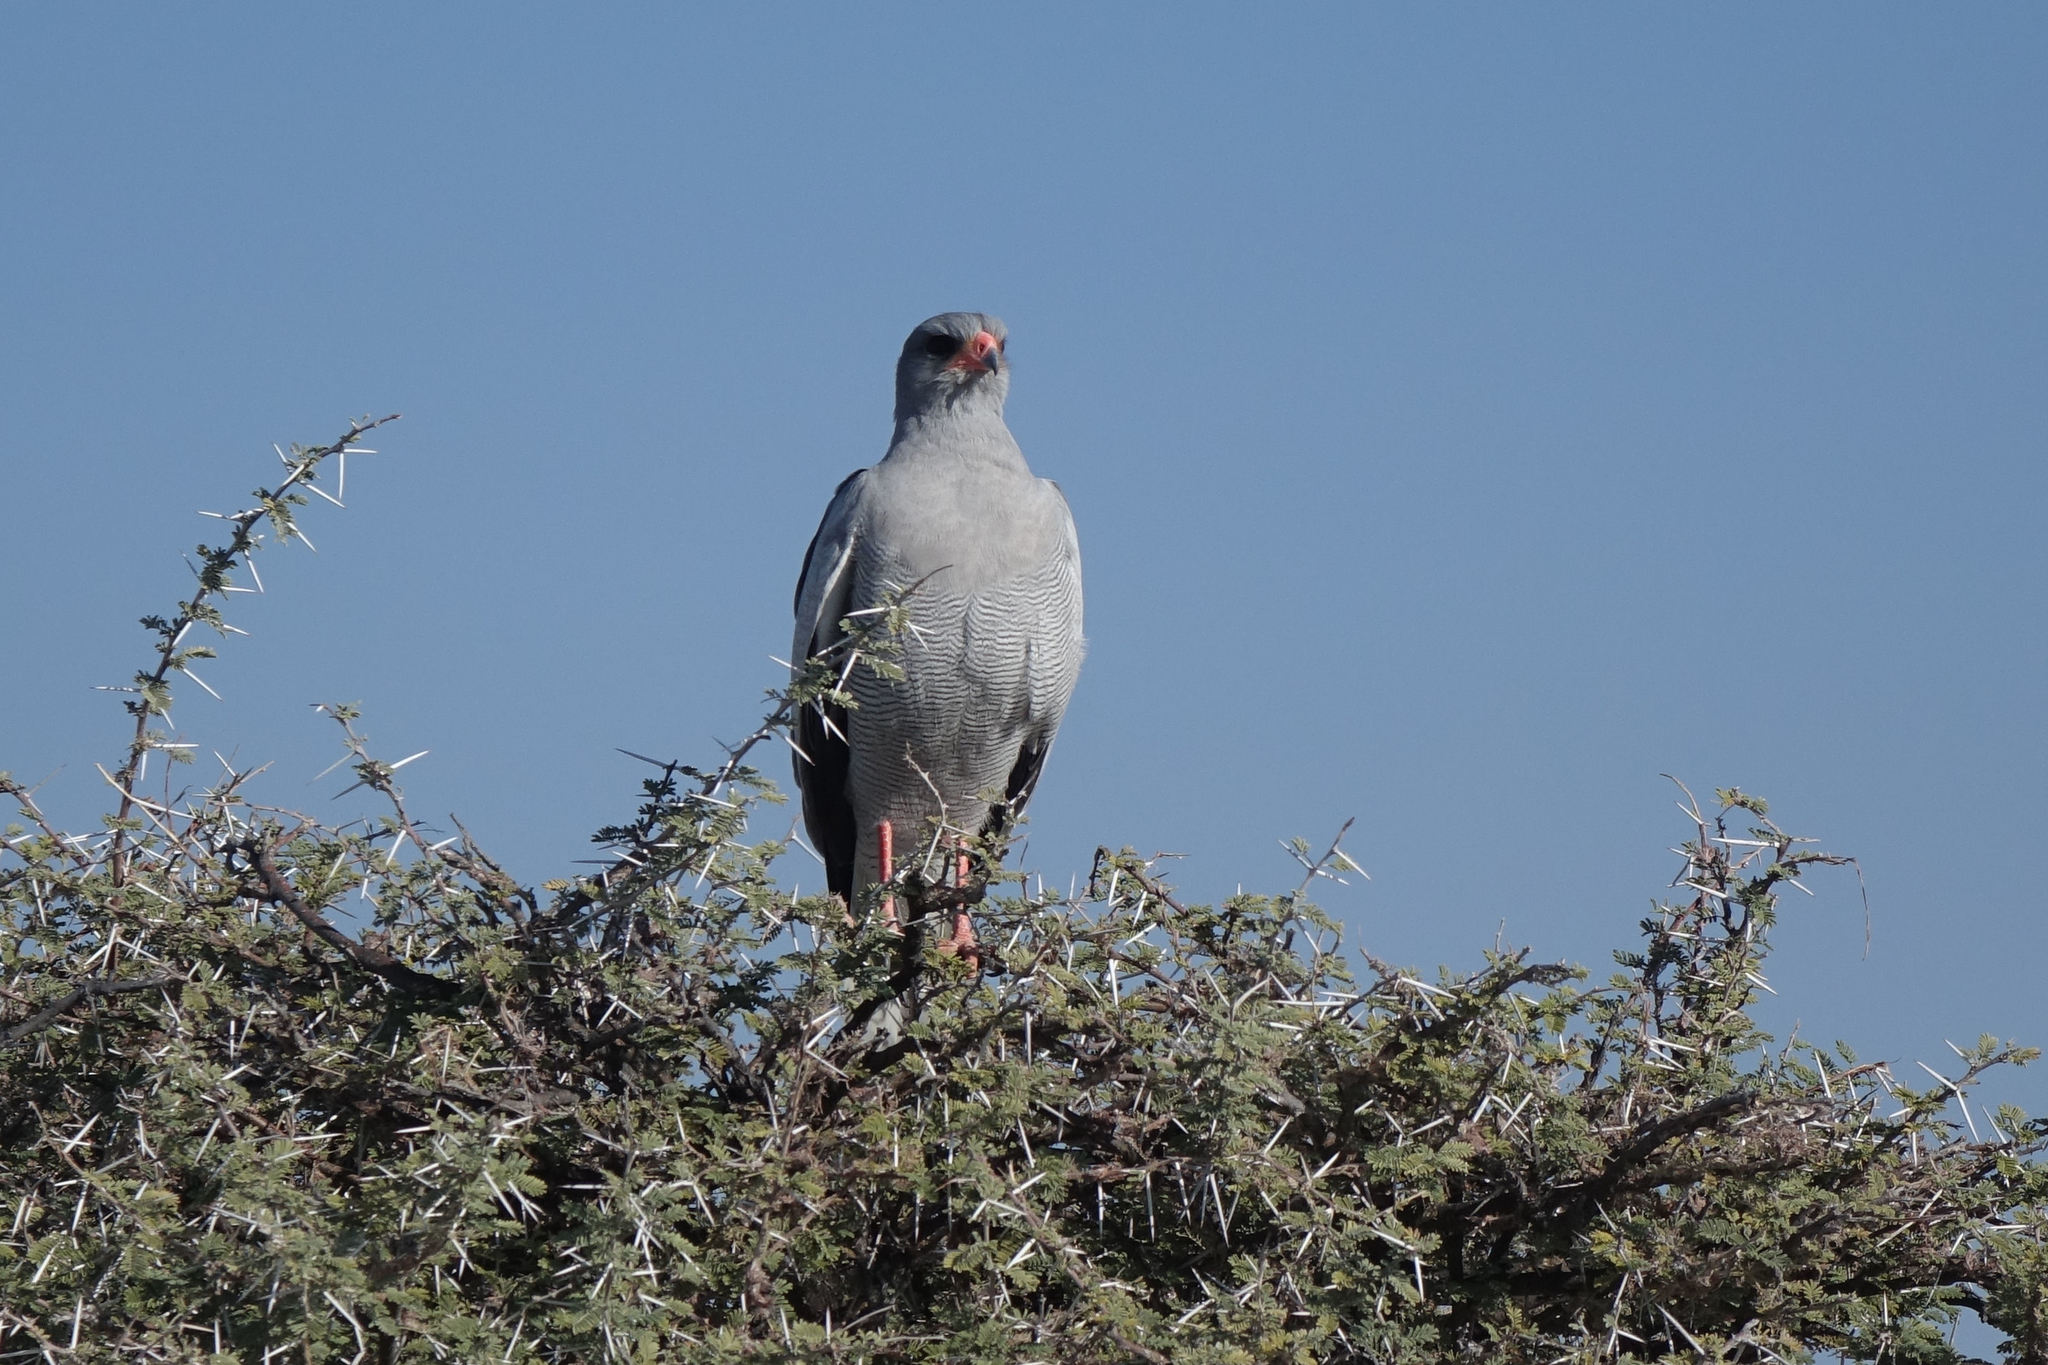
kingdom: Animalia
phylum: Chordata
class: Aves
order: Accipitriformes
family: Accipitridae
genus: Melierax
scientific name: Melierax canorus
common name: Pale chanting-goshawk
